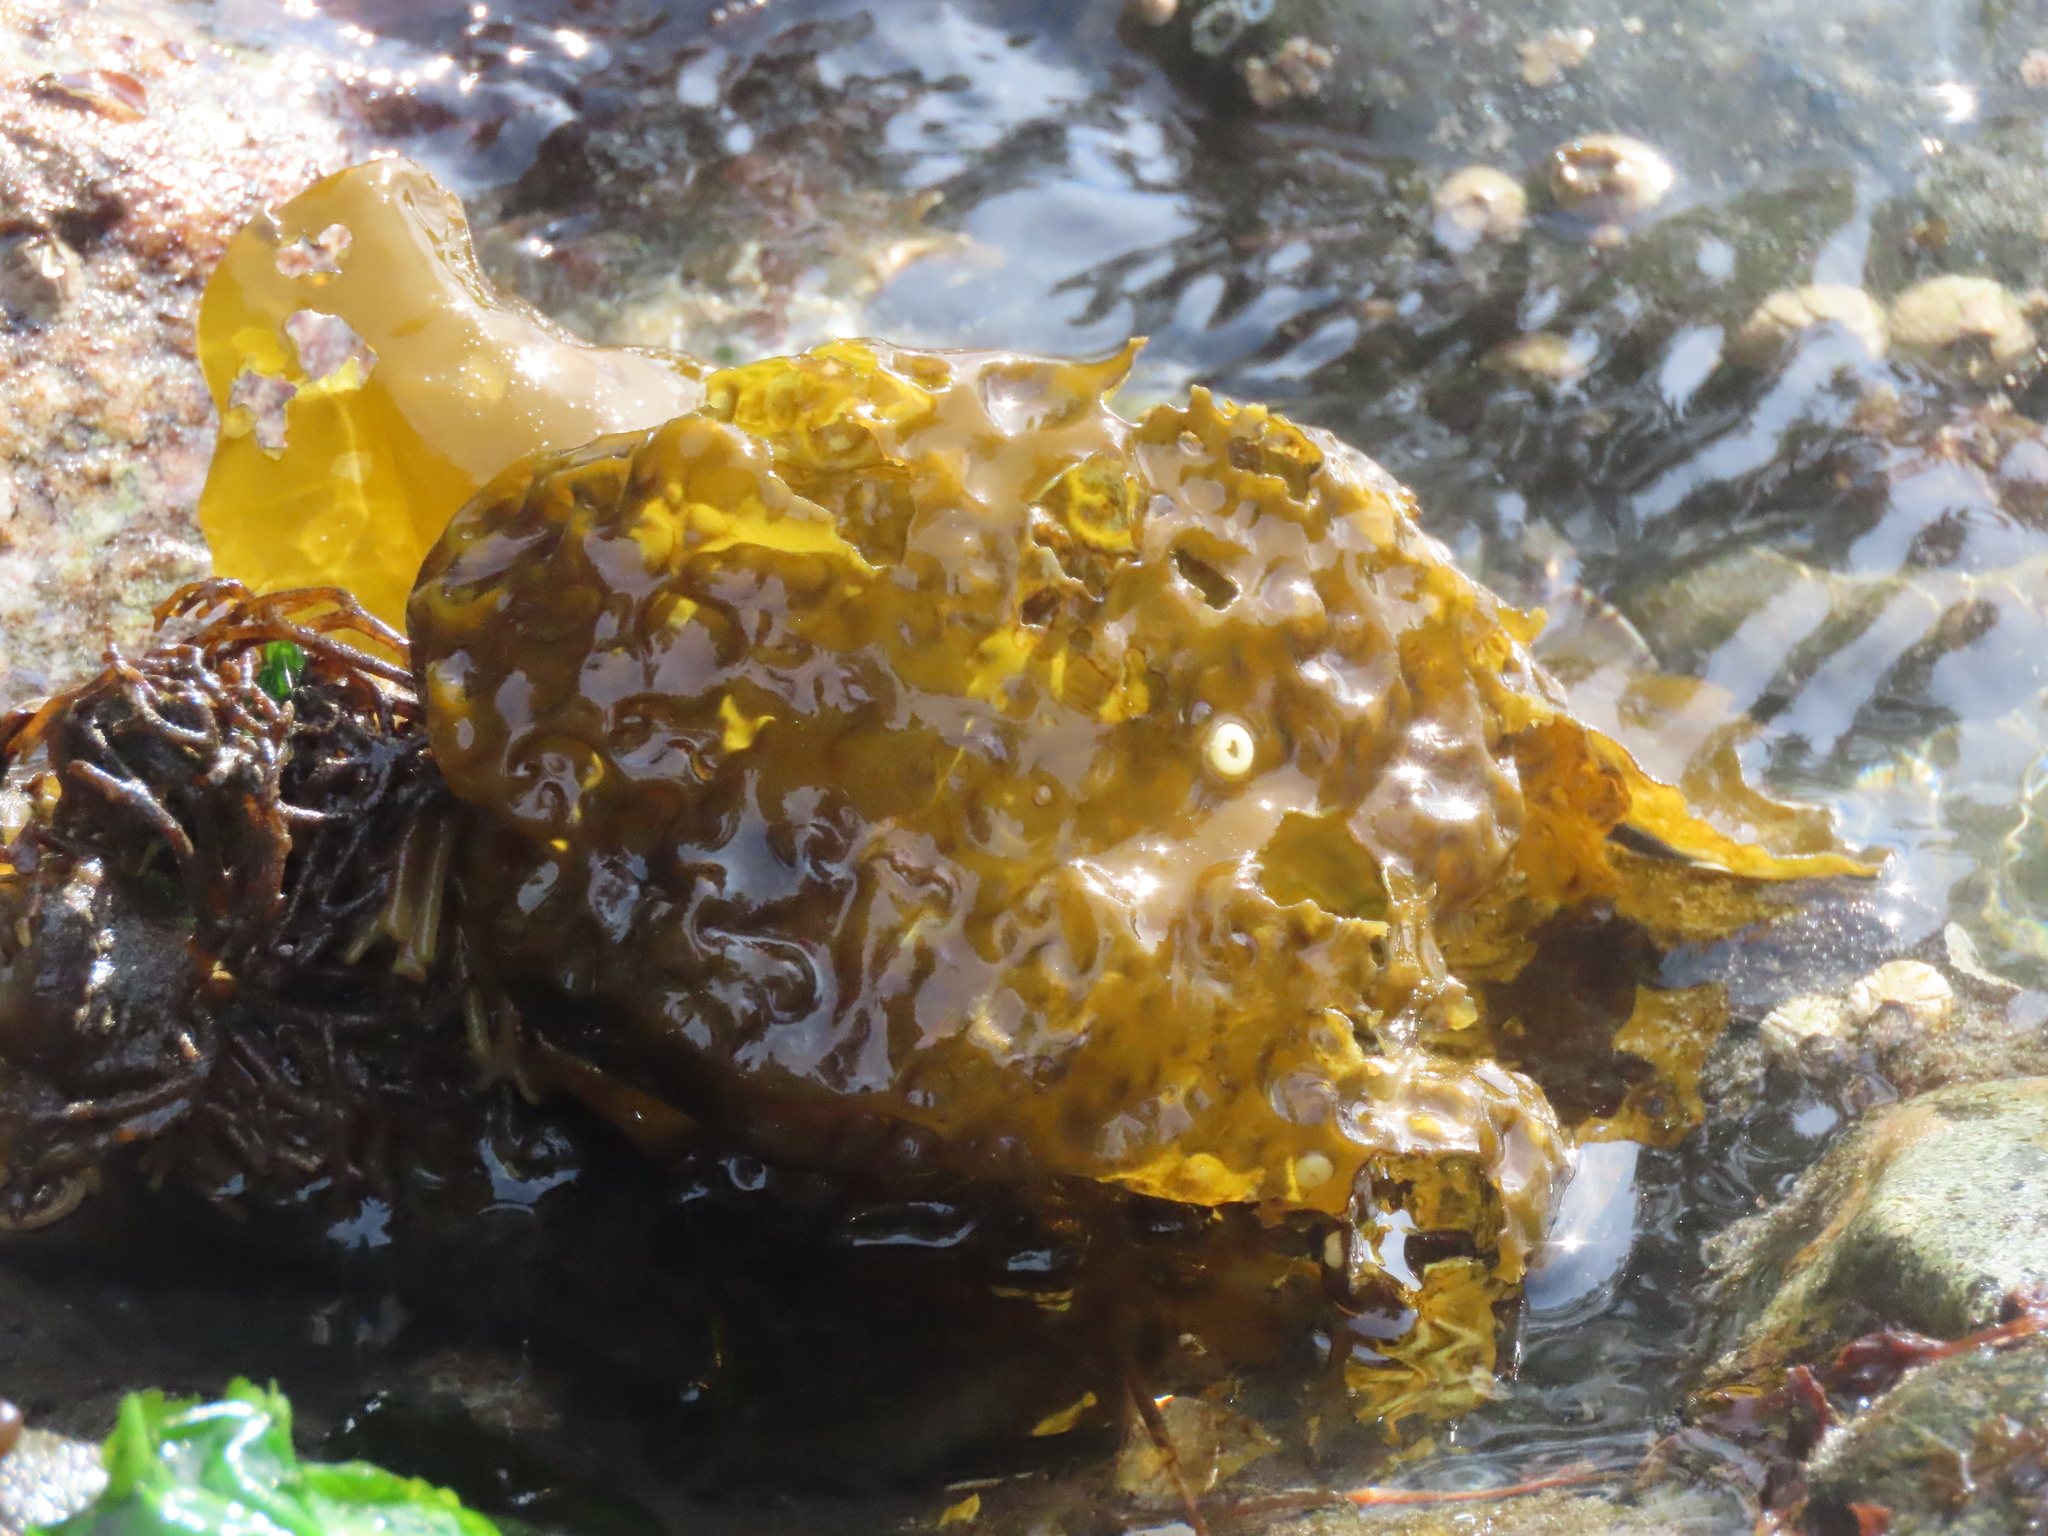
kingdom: Chromista
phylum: Ochrophyta
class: Phaeophyceae
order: Laminariales
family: Laminariaceae
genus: Hedophyllum
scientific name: Hedophyllum sessile
